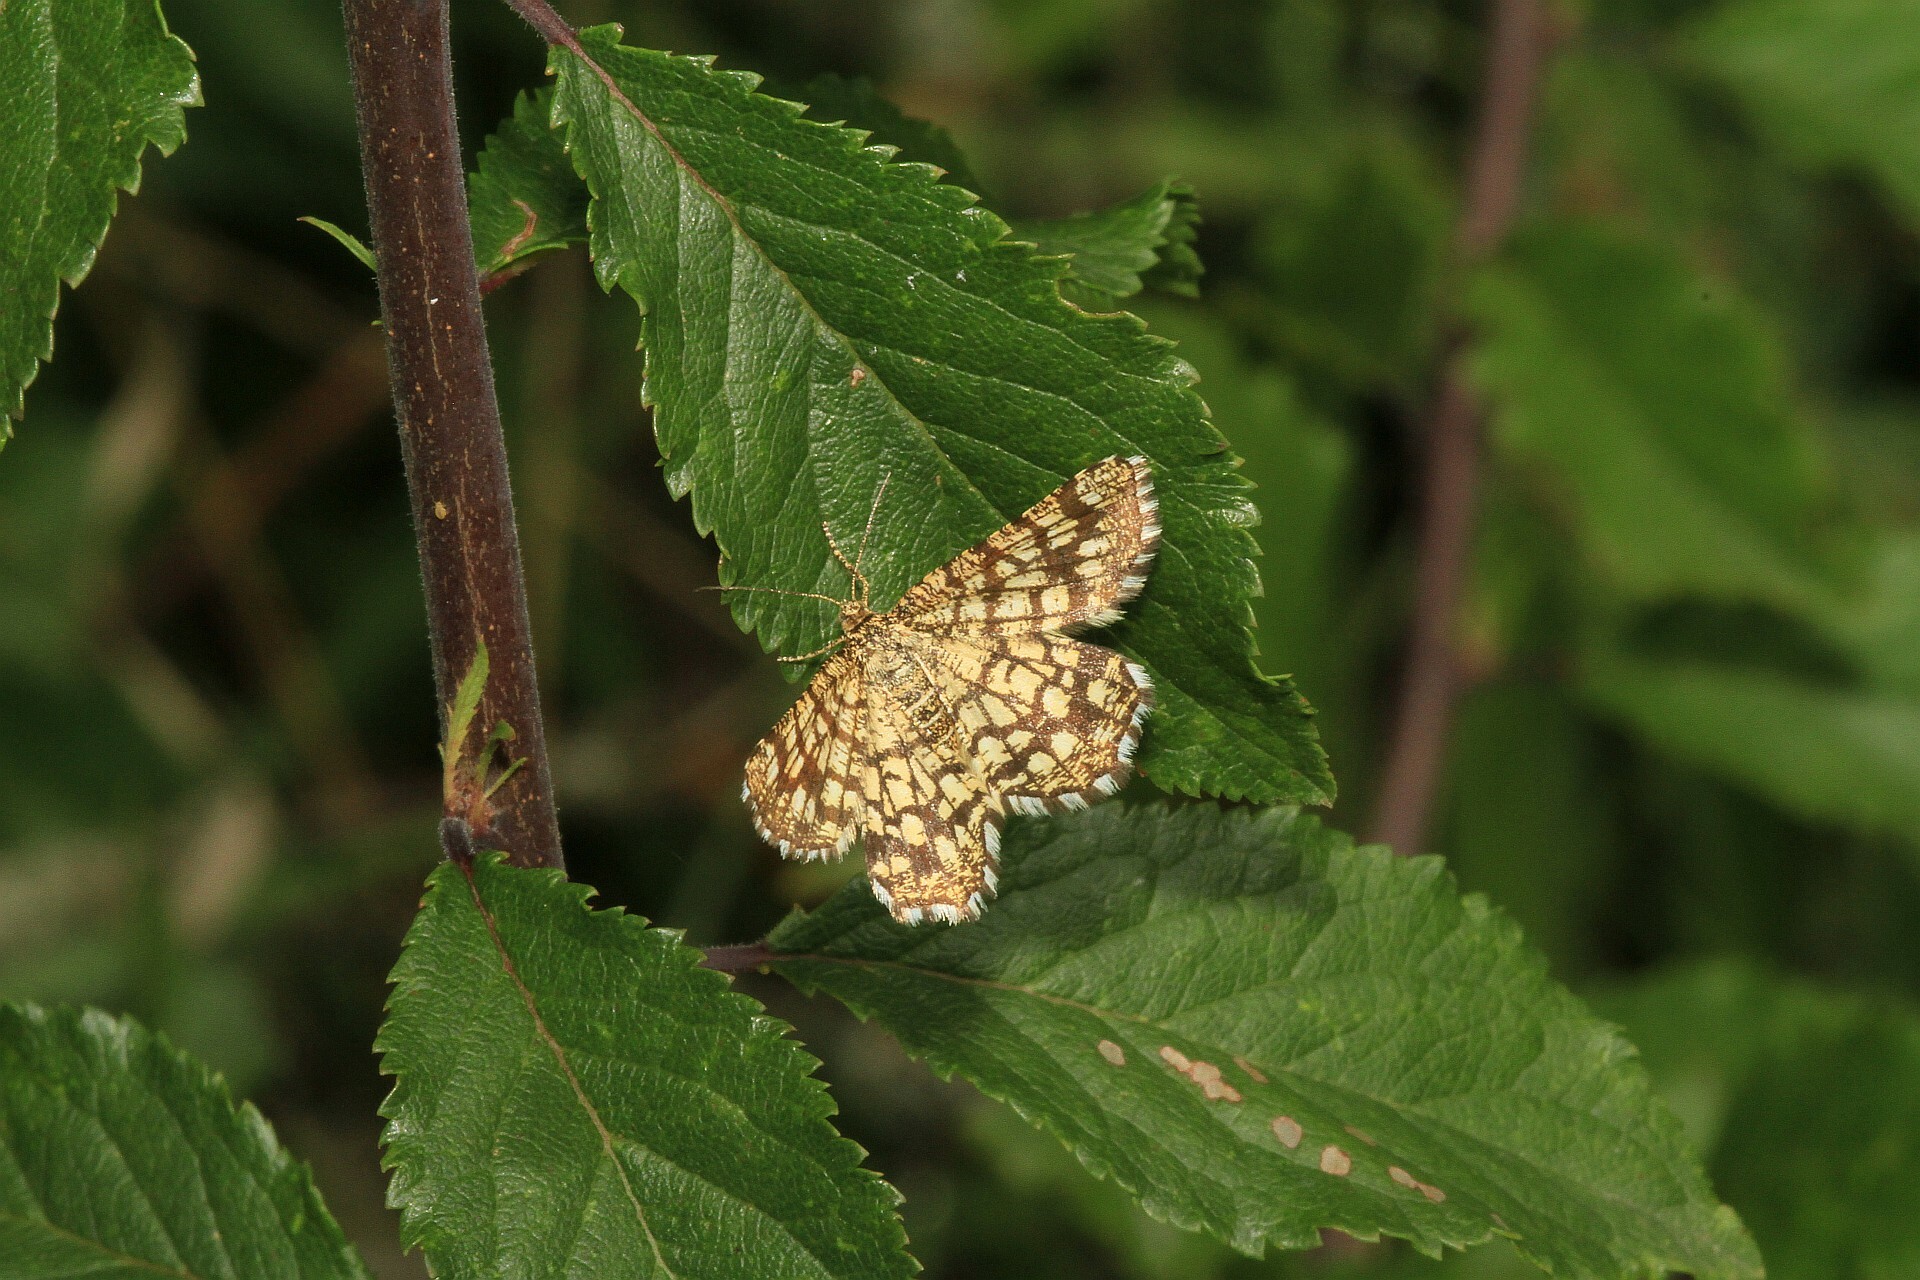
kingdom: Animalia
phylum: Arthropoda
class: Insecta
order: Lepidoptera
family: Geometridae
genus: Chiasmia
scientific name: Chiasmia clathrata
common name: Latticed heath
